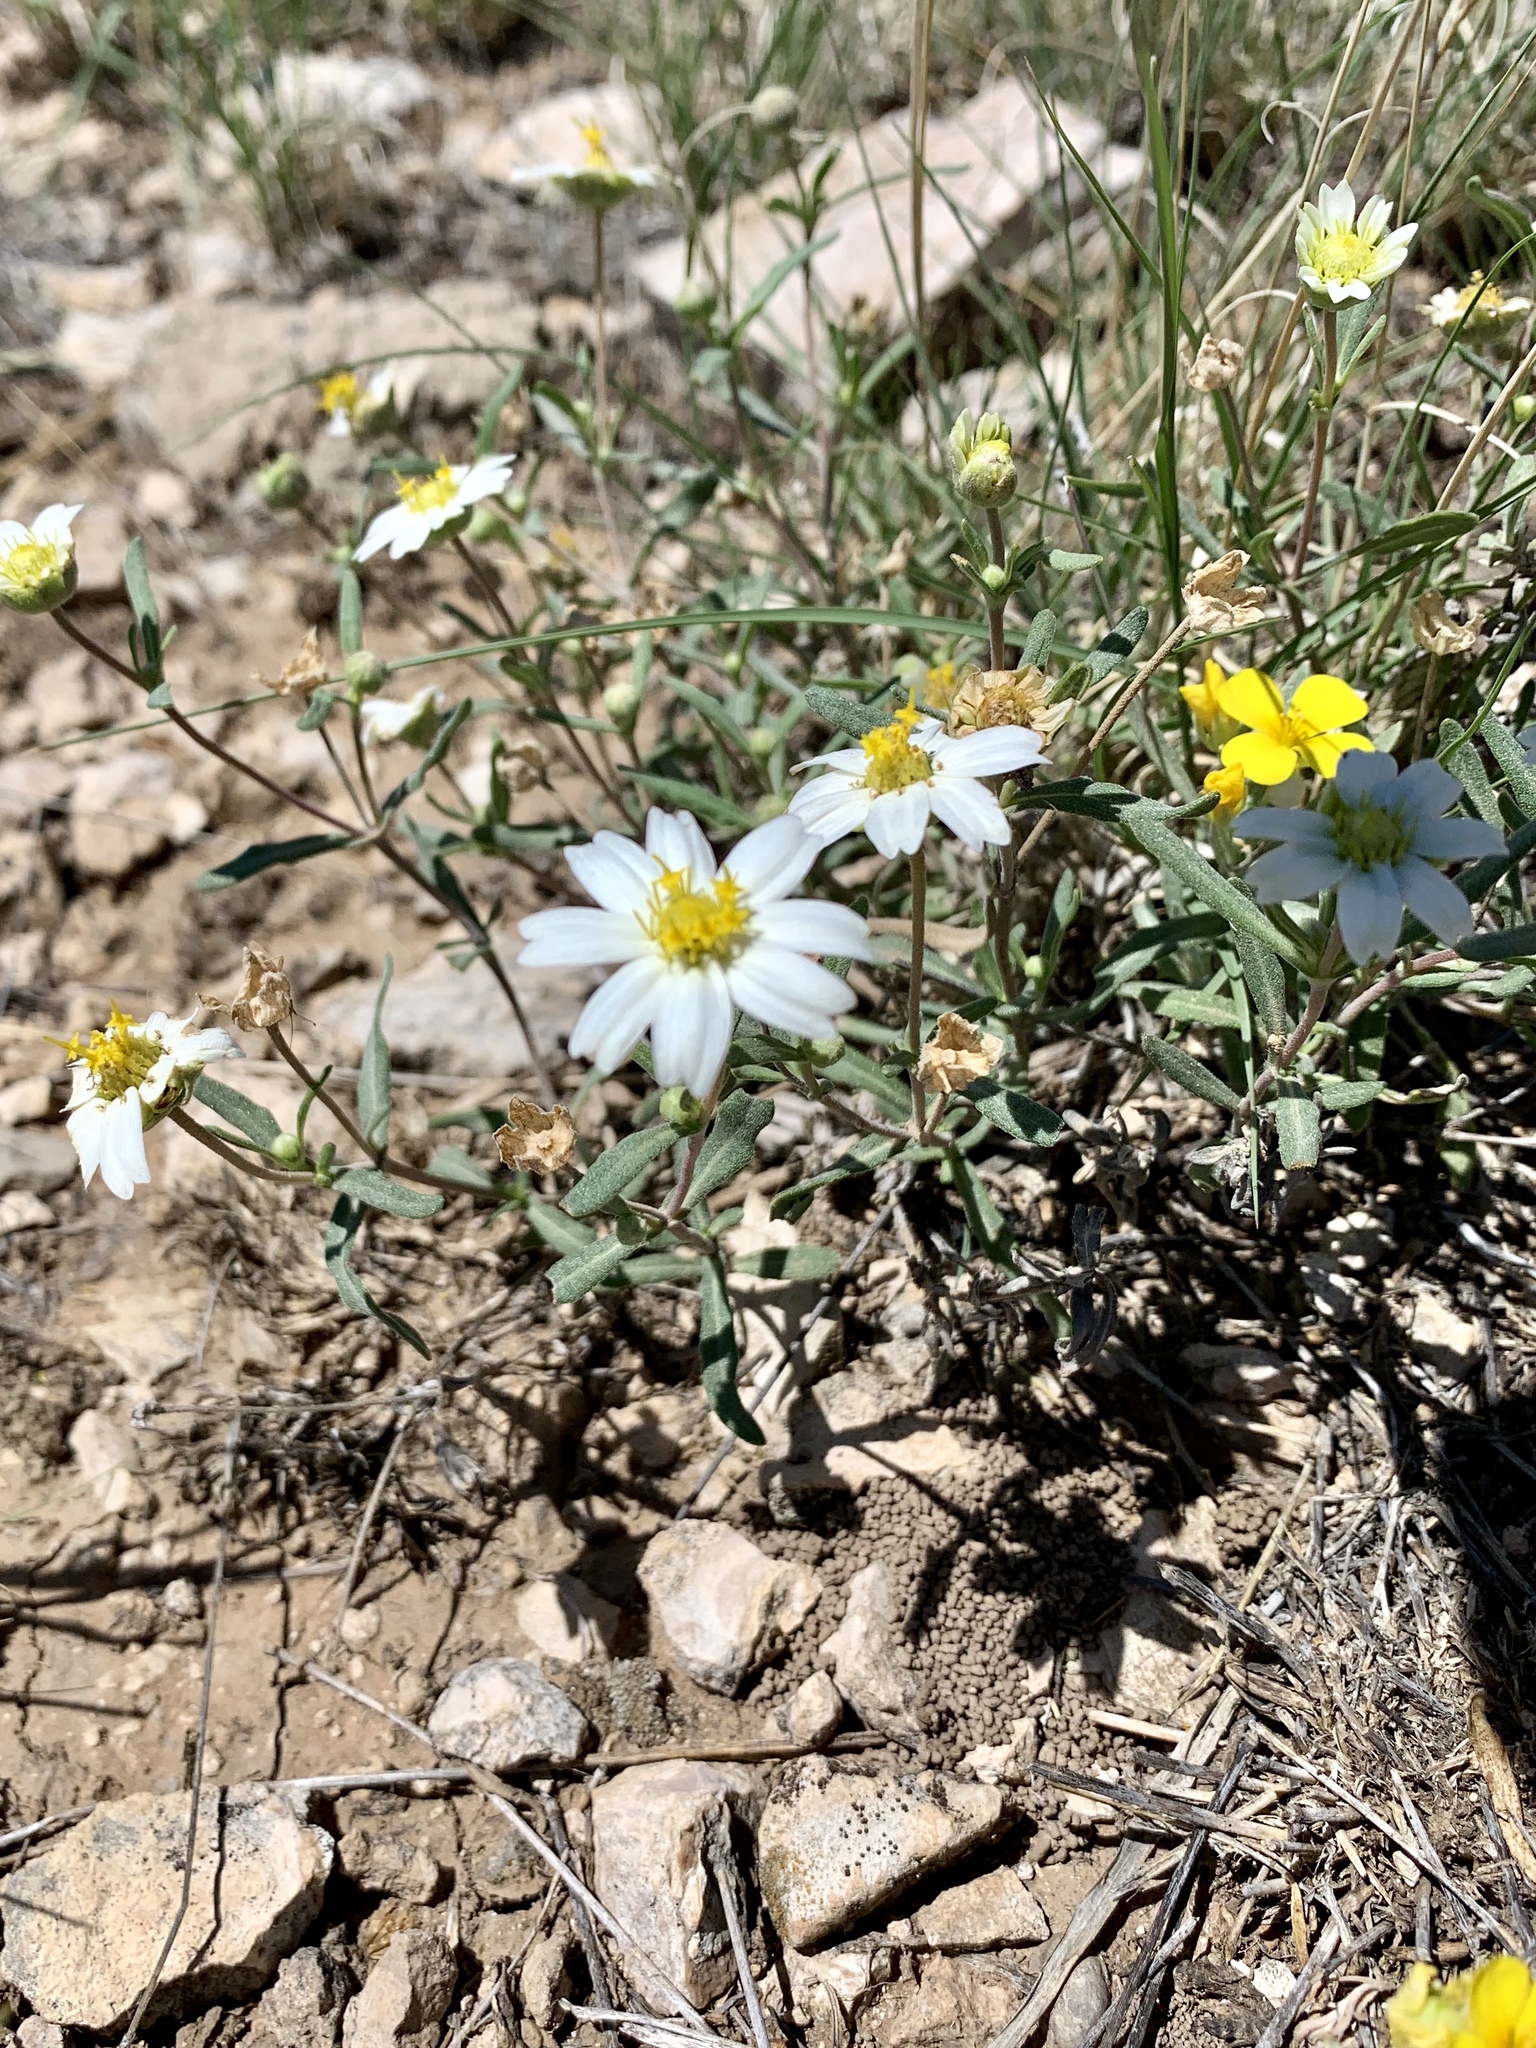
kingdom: Plantae
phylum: Tracheophyta
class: Magnoliopsida
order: Asterales
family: Asteraceae
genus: Melampodium
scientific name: Melampodium leucanthum
